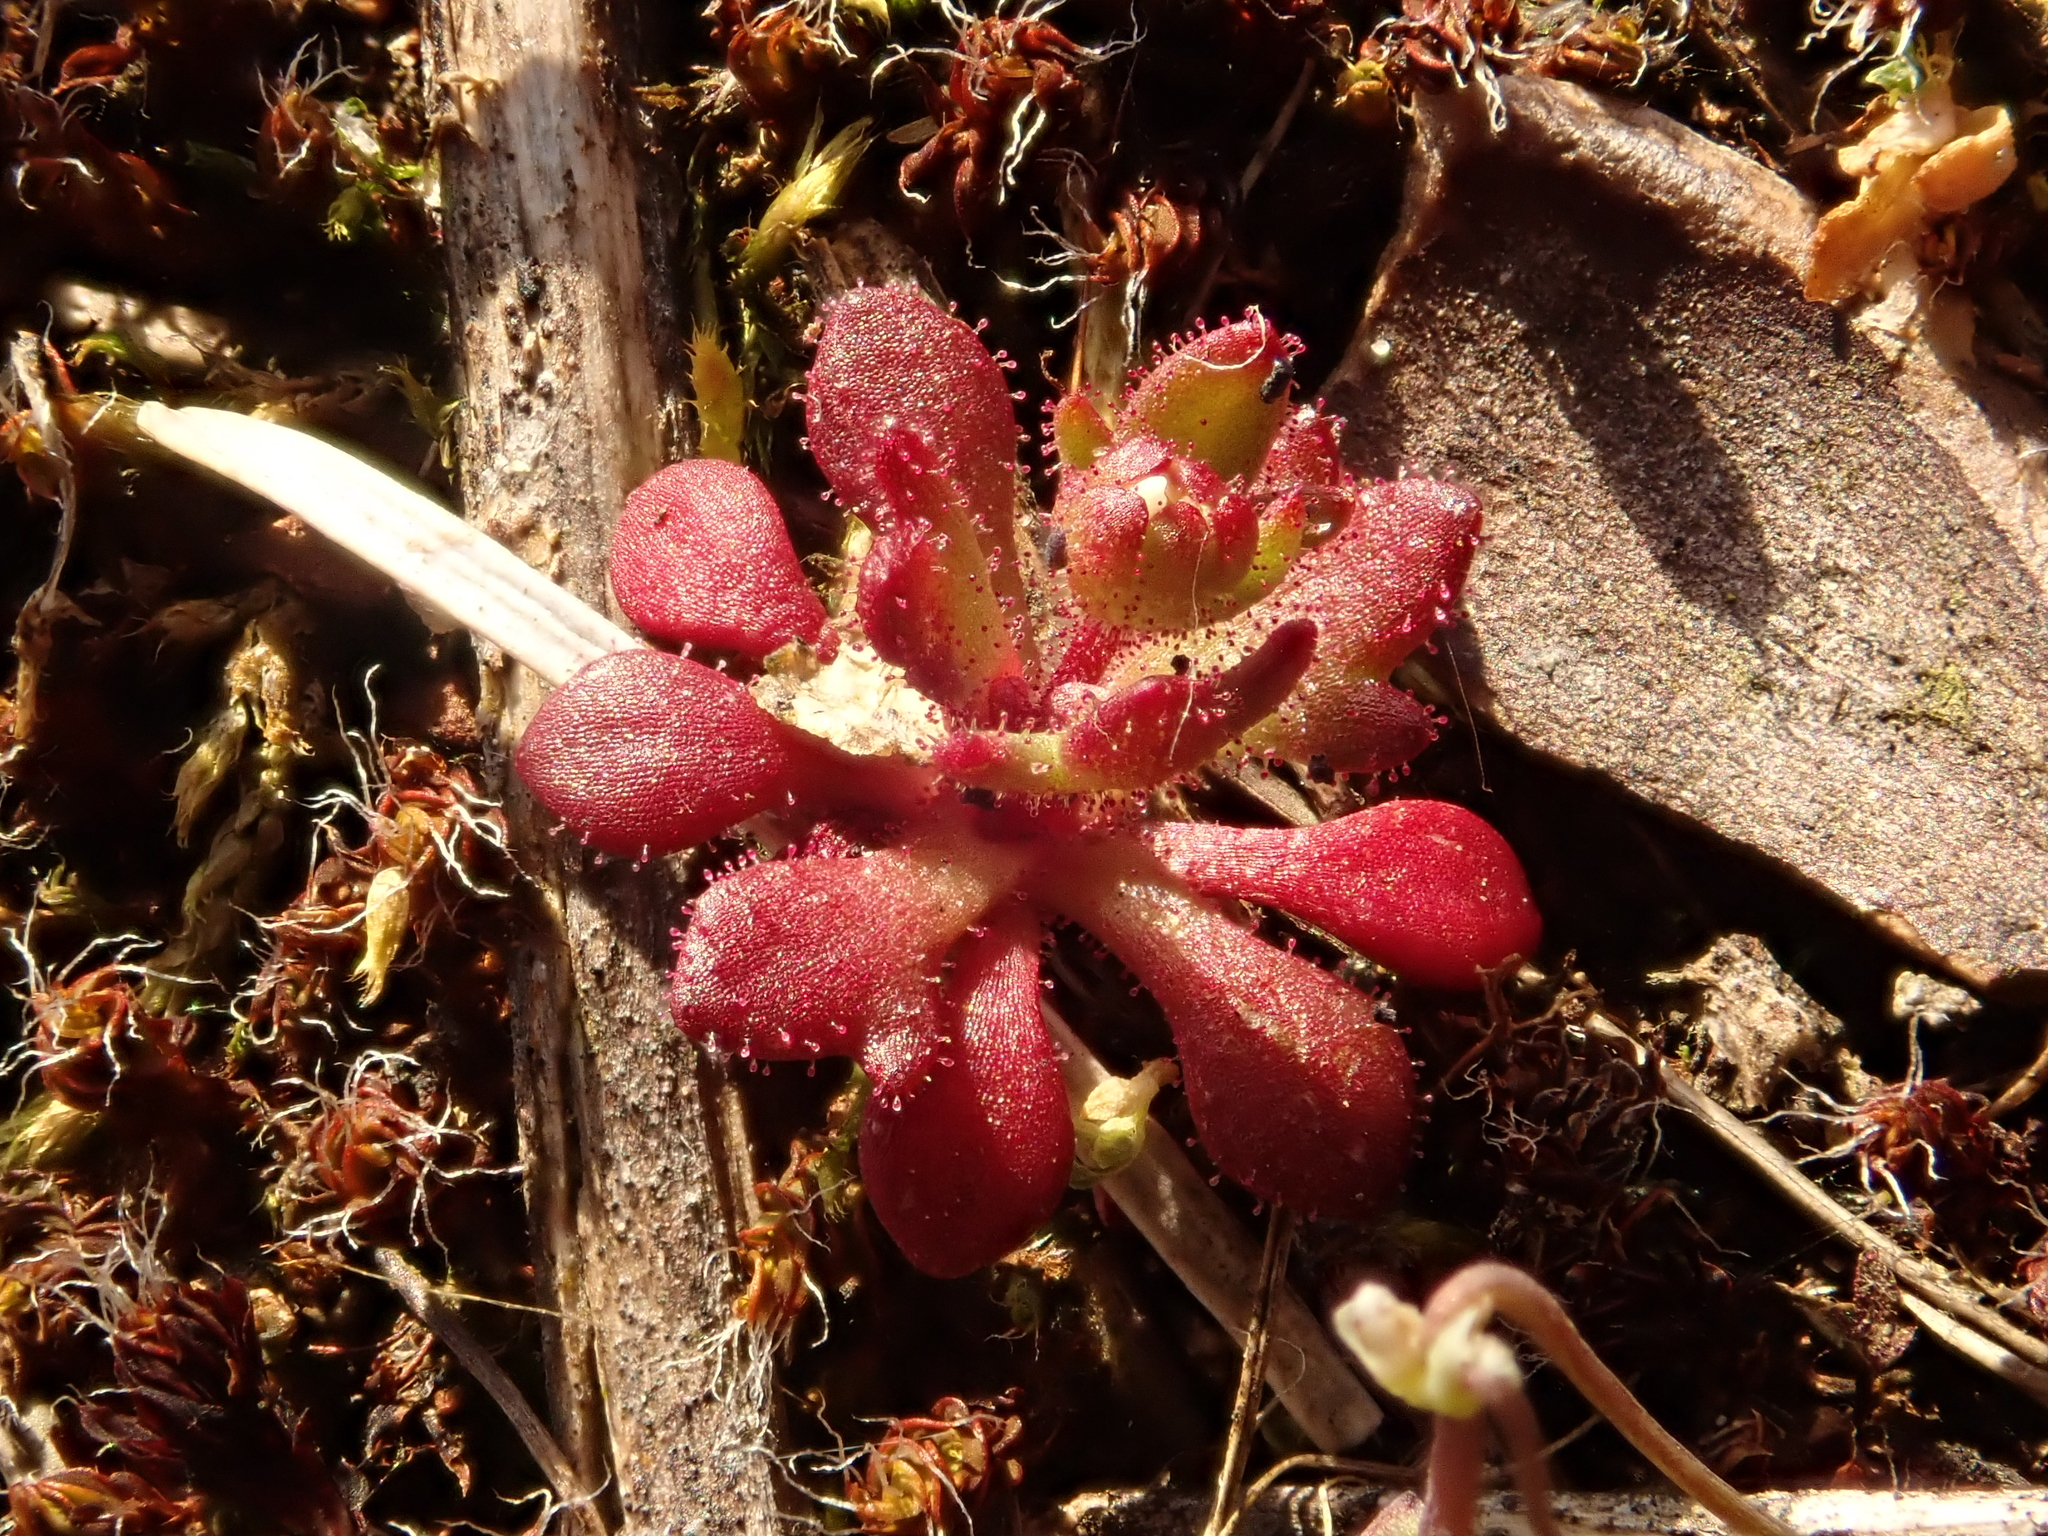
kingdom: Plantae
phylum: Tracheophyta
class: Magnoliopsida
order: Saxifragales
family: Saxifragaceae
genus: Saxifraga
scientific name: Saxifraga tridactylites
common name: Rue-leaved saxifrage
